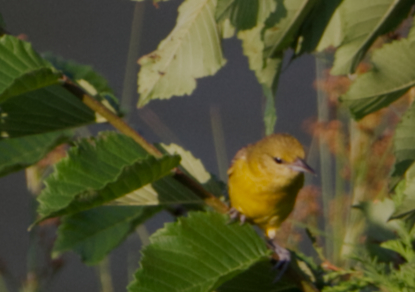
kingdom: Animalia
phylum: Chordata
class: Aves
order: Passeriformes
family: Icteridae
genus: Icterus
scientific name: Icterus spurius
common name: Orchard oriole
